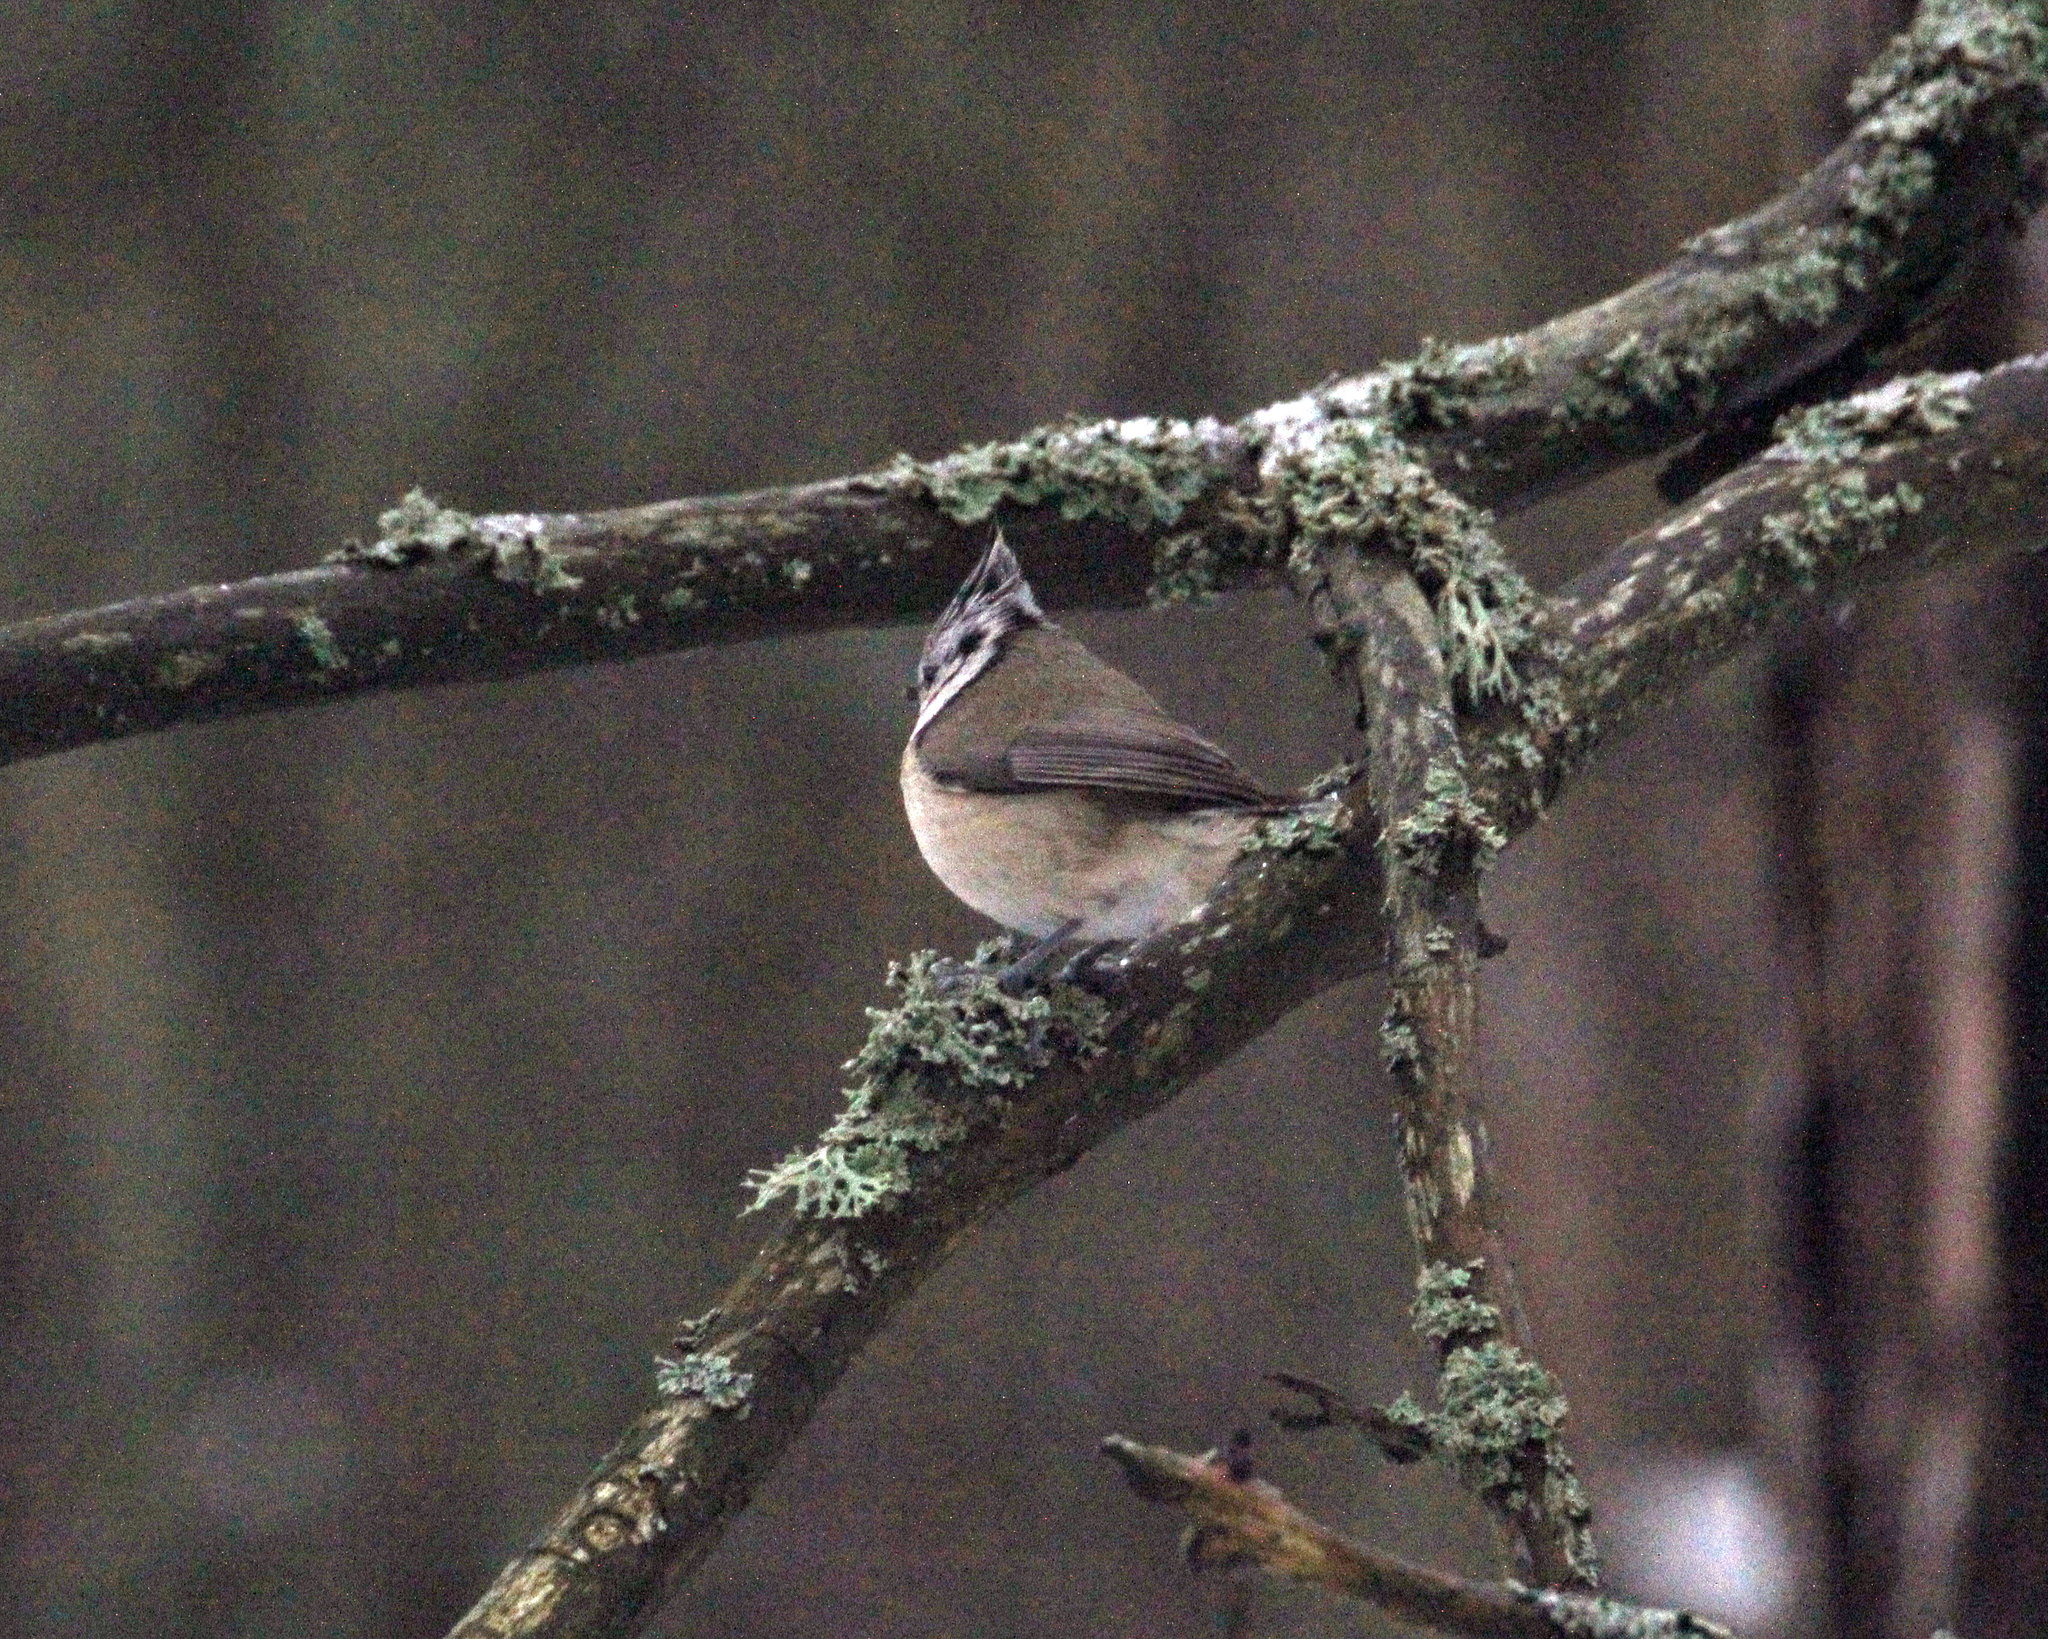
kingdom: Animalia
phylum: Chordata
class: Aves
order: Passeriformes
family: Paridae
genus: Lophophanes
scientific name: Lophophanes cristatus
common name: European crested tit
